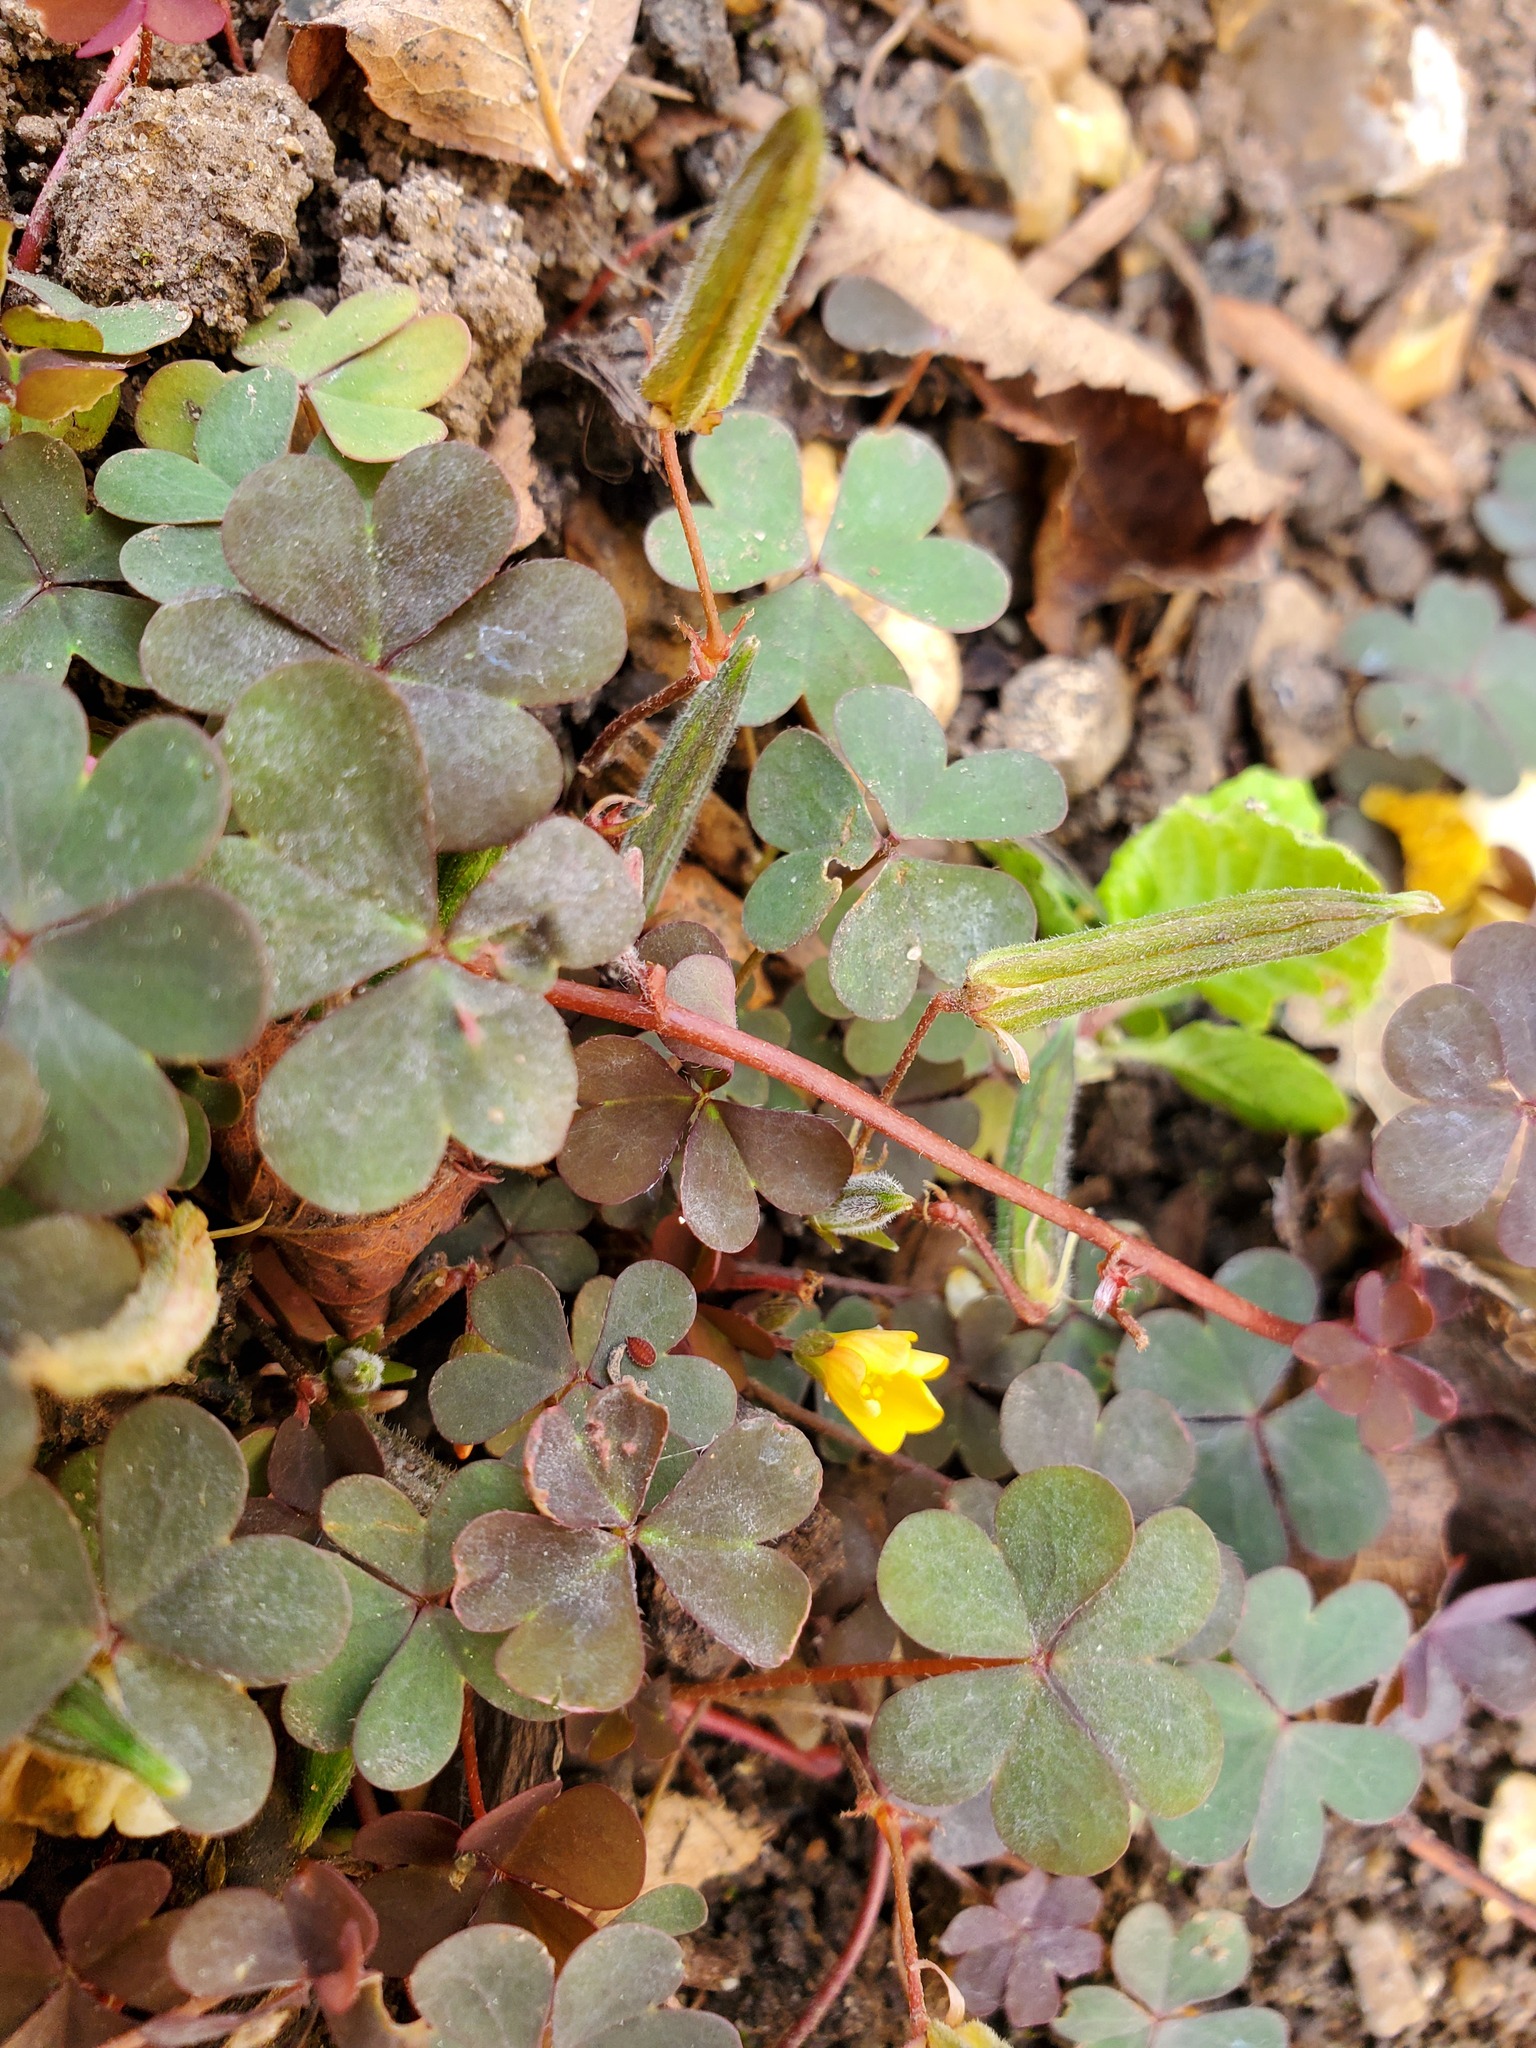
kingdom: Plantae
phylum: Tracheophyta
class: Magnoliopsida
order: Oxalidales
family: Oxalidaceae
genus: Oxalis
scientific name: Oxalis corniculata
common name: Procumbent yellow-sorrel
